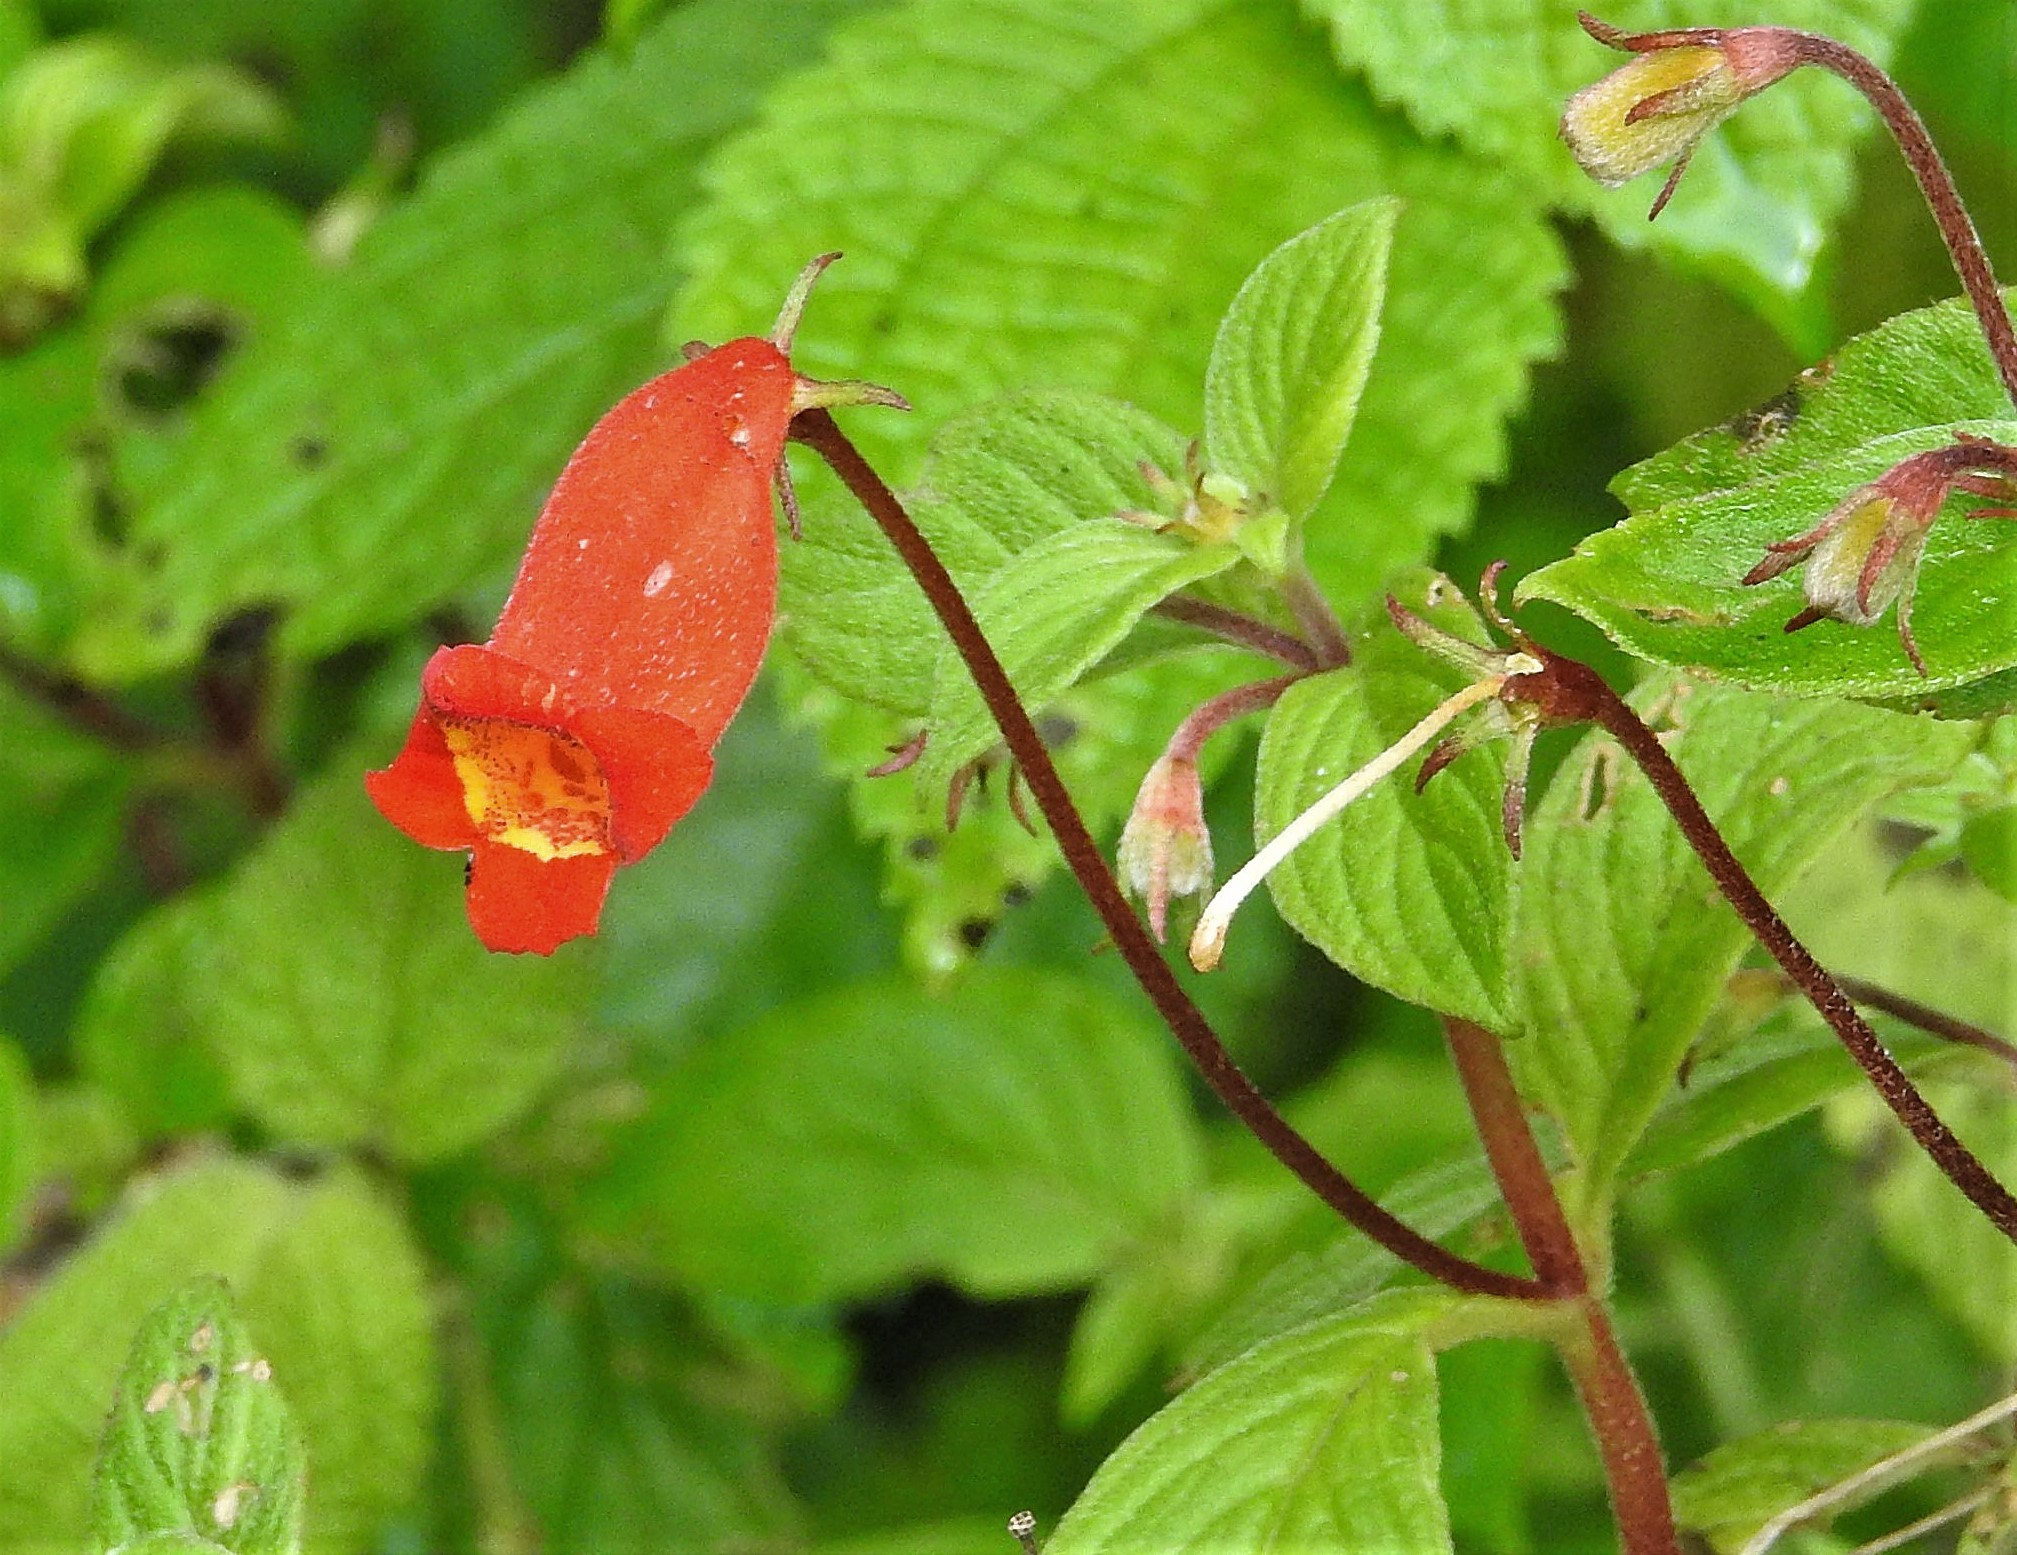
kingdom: Plantae
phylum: Tracheophyta
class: Magnoliopsida
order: Lamiales
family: Gesneriaceae
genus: Seemannia
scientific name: Seemannia nematanthodes
